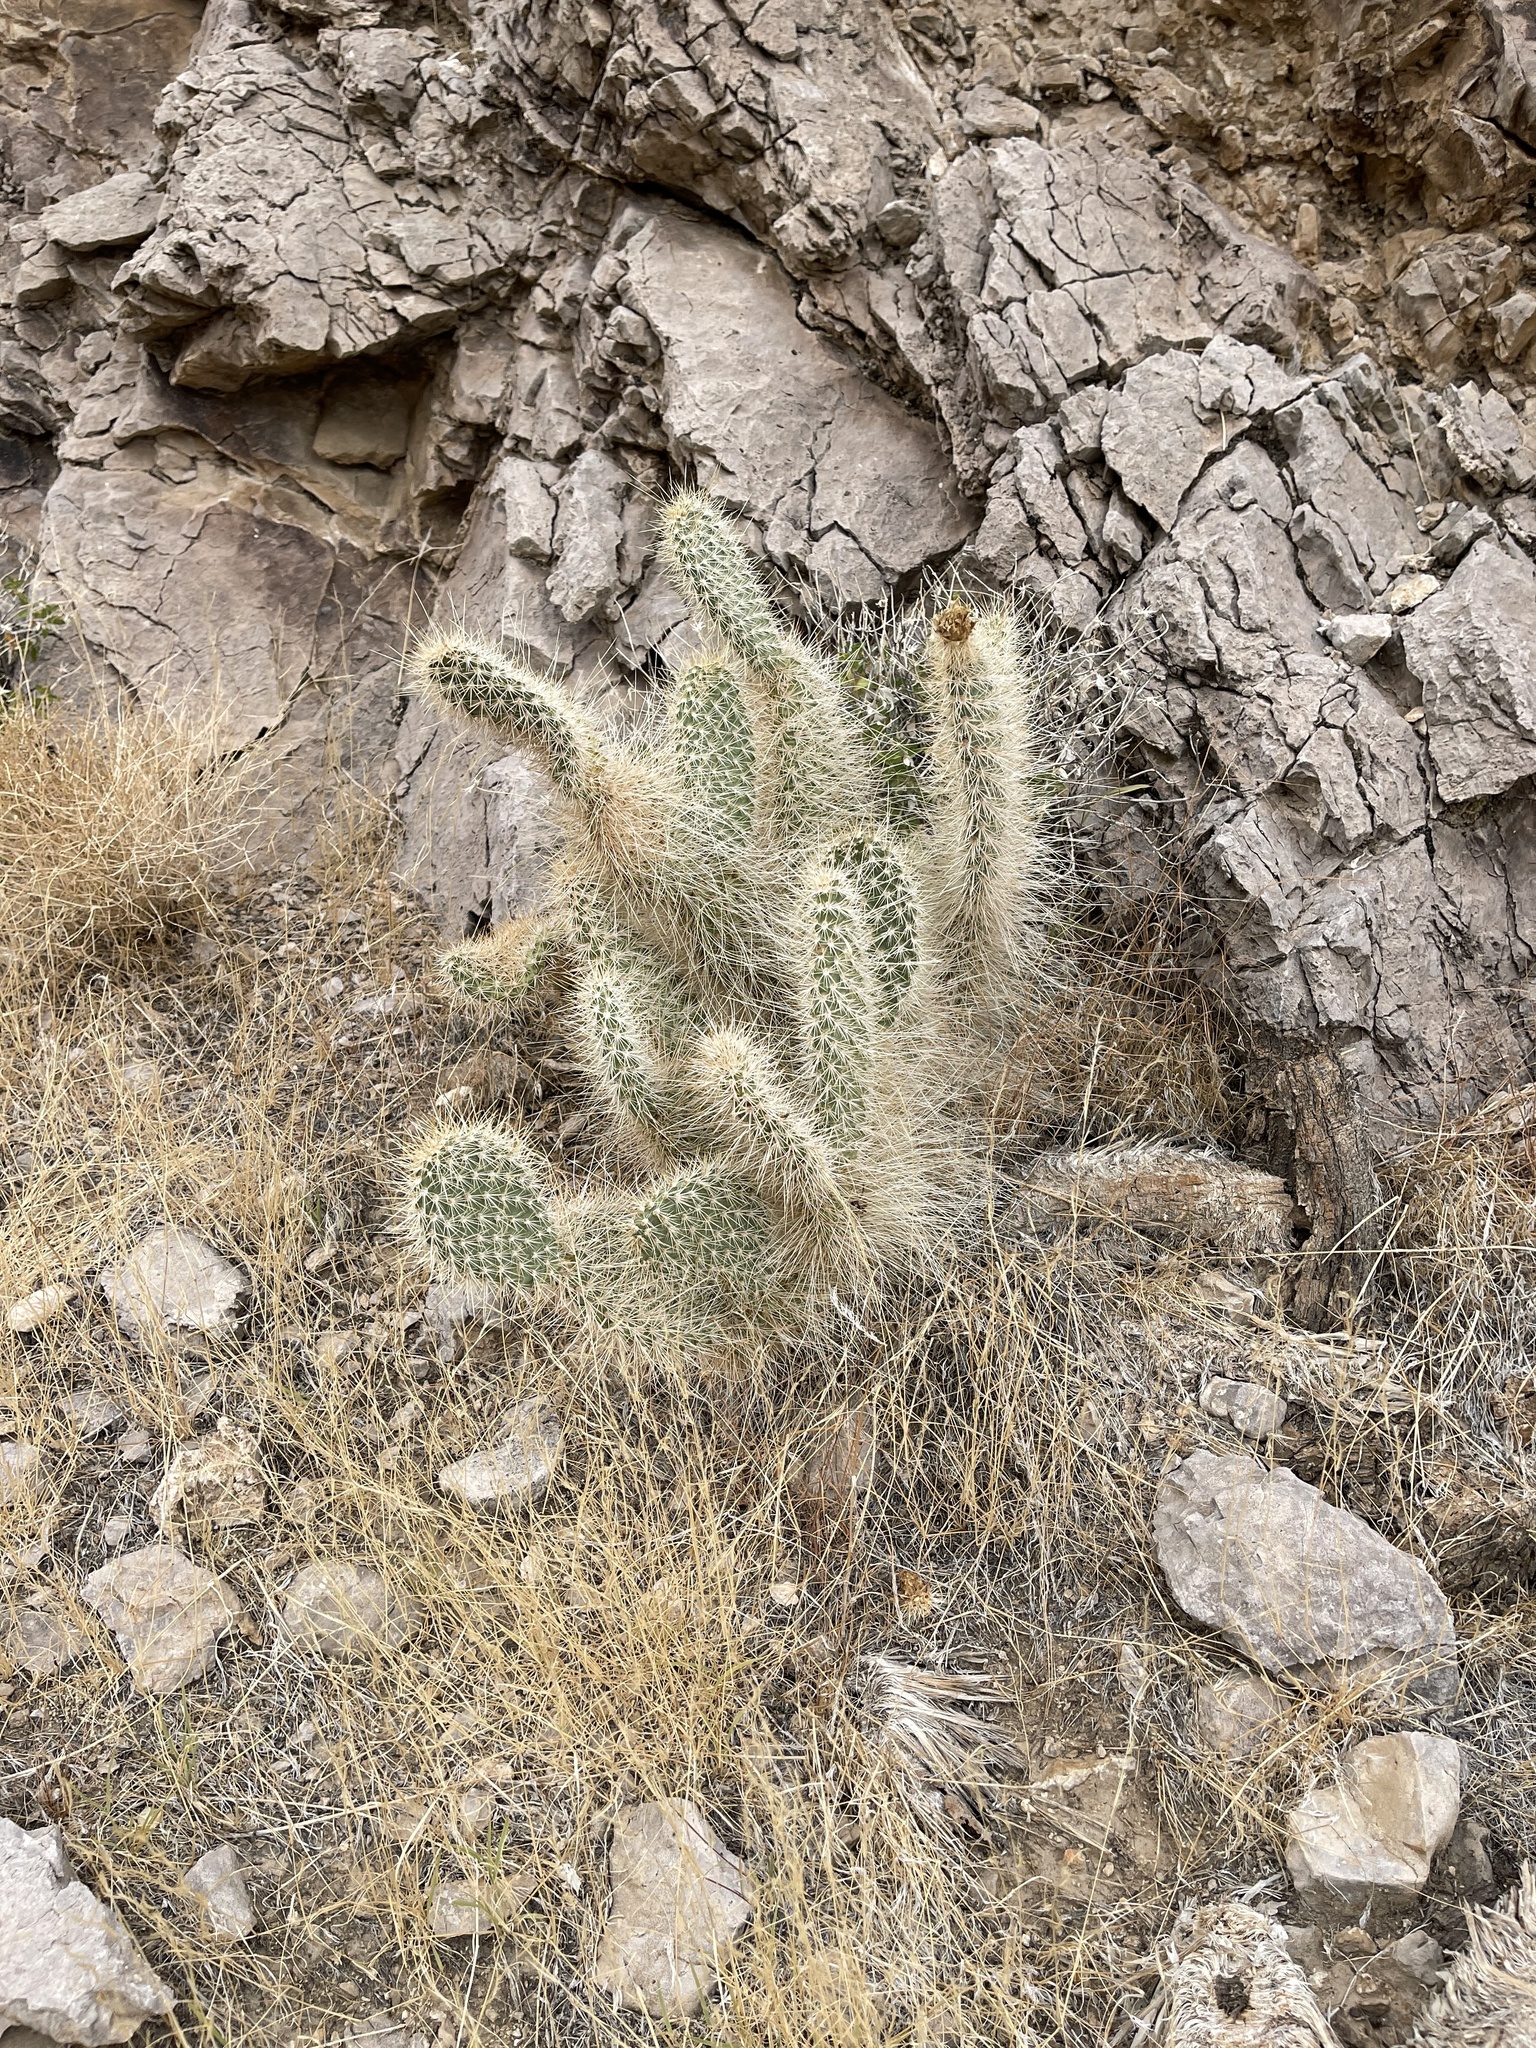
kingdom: Plantae
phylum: Tracheophyta
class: Magnoliopsida
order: Caryophyllales
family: Cactaceae
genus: Opuntia
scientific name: Opuntia polyacantha
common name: Plains prickly-pear
